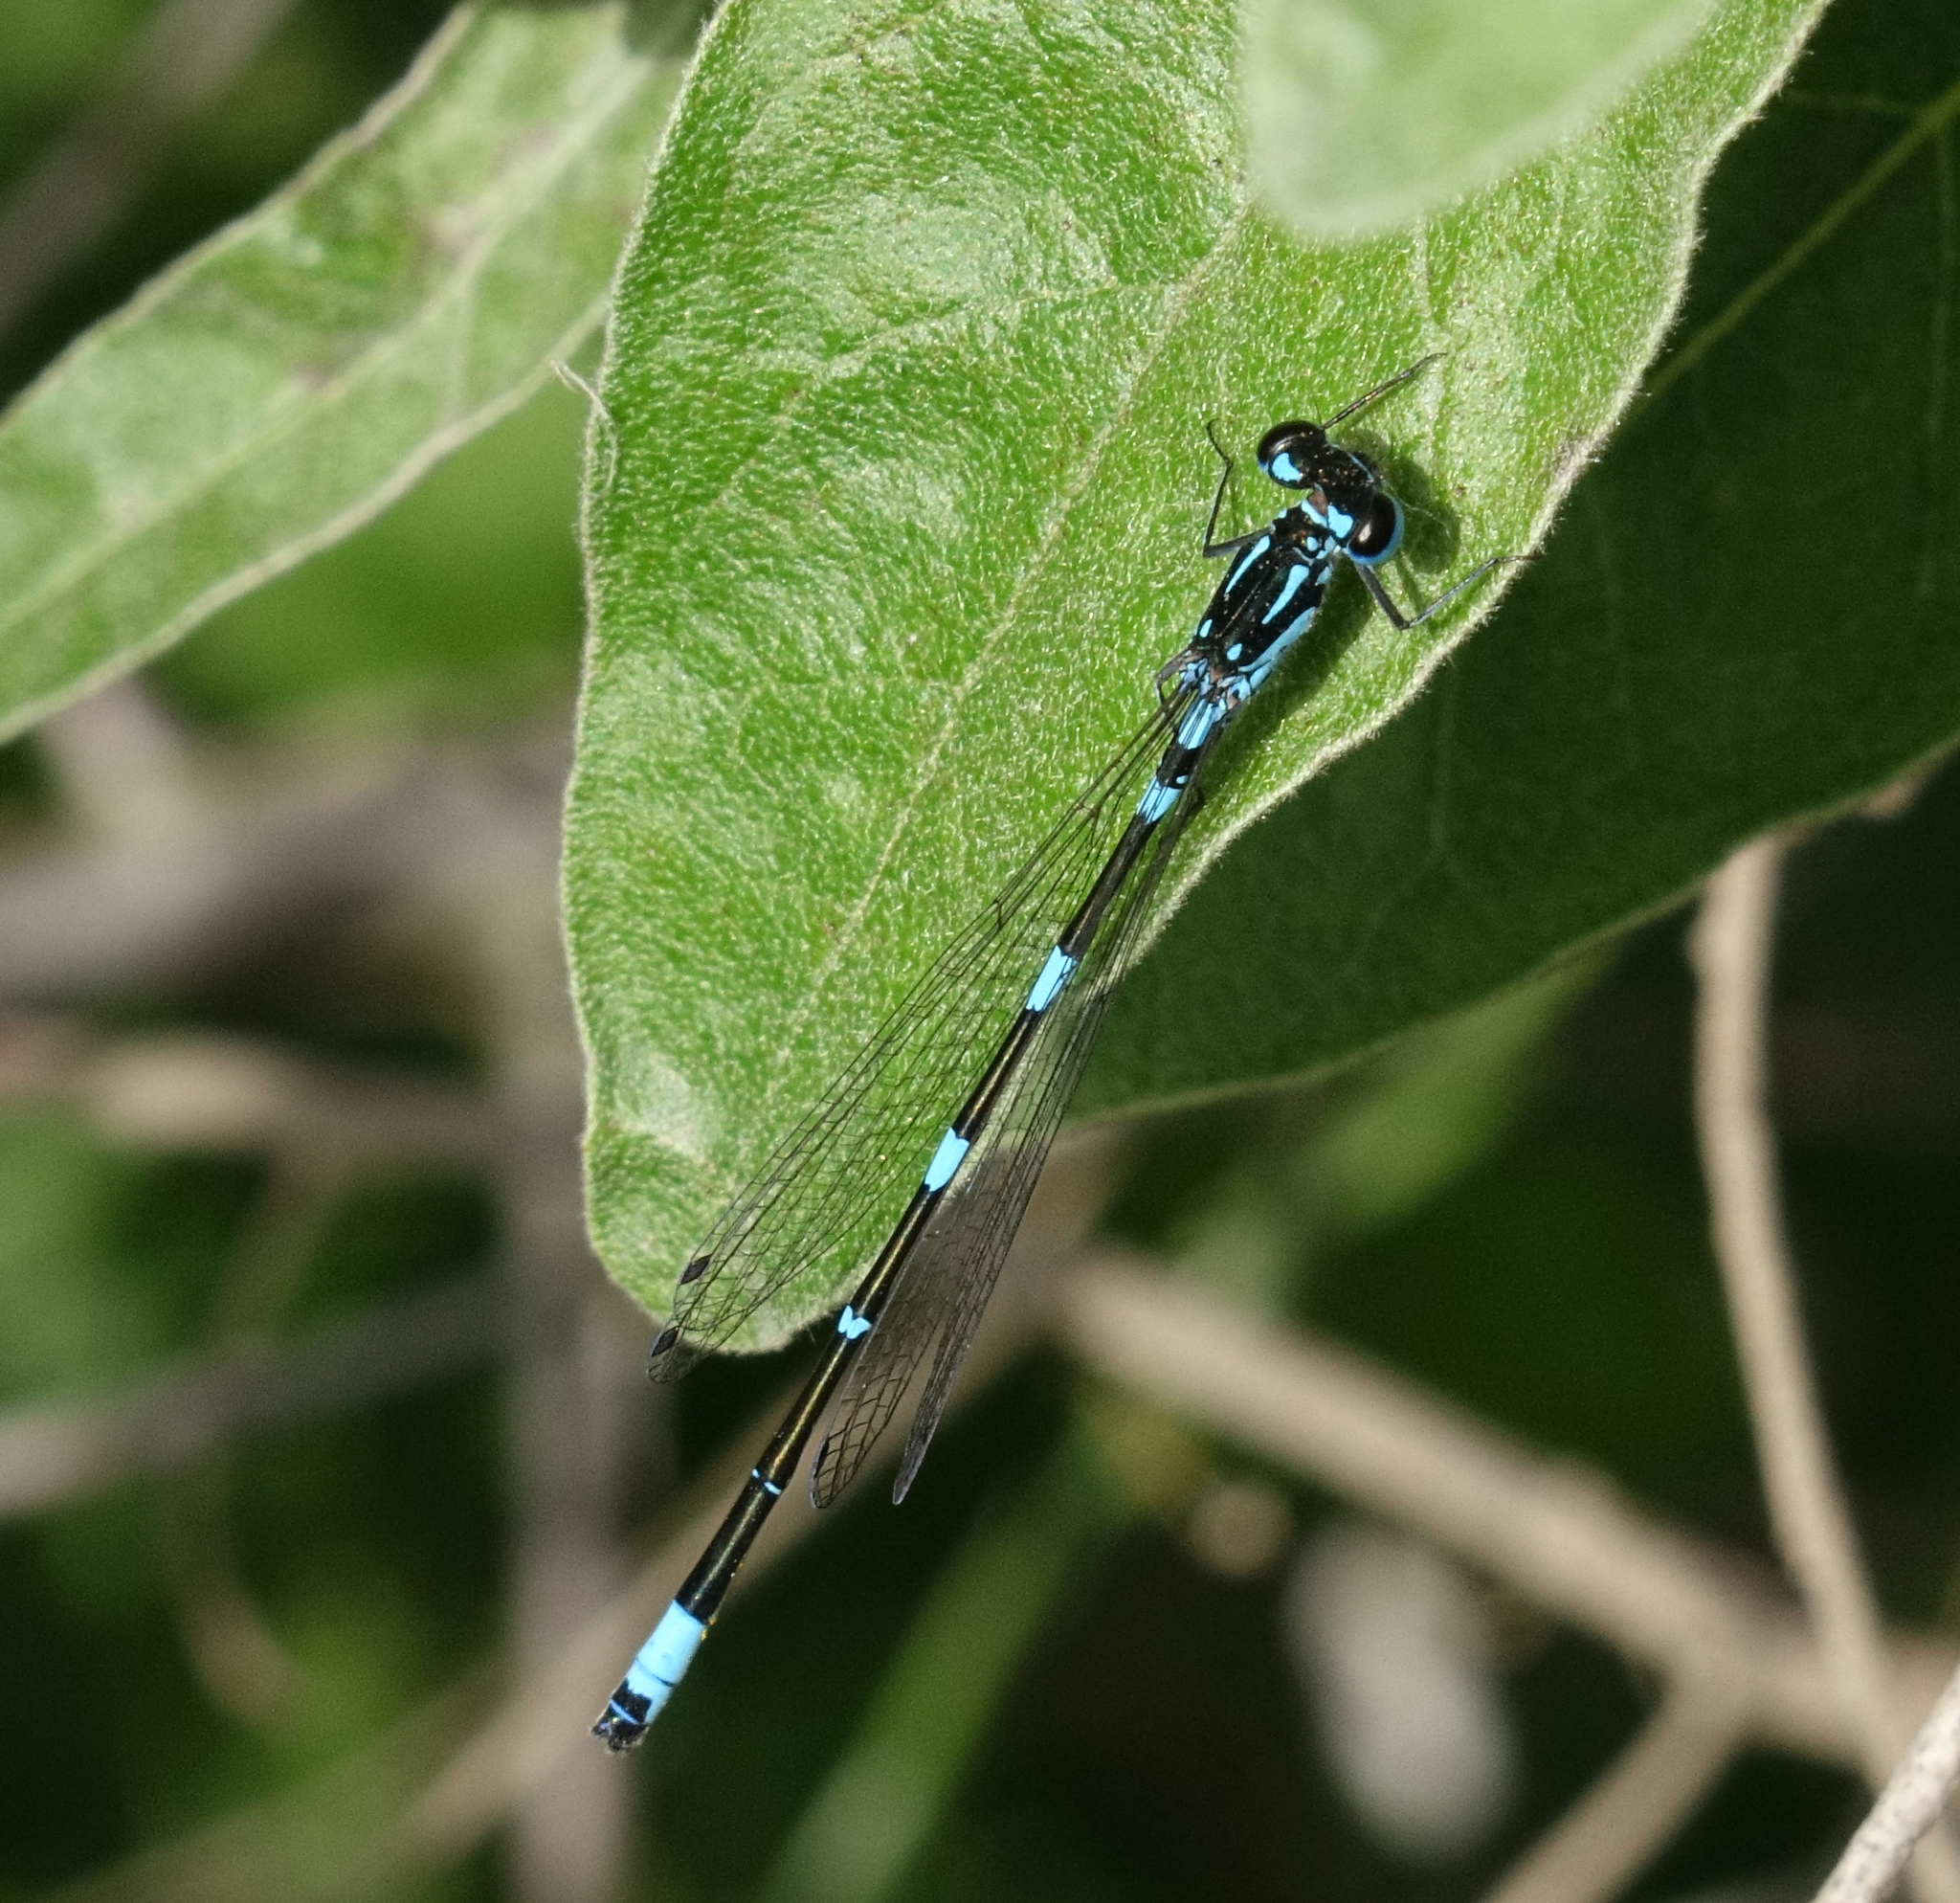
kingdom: Animalia
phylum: Arthropoda
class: Insecta
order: Odonata
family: Coenagrionidae
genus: Coenagrion
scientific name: Coenagrion pulchellum
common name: Variable bluet
